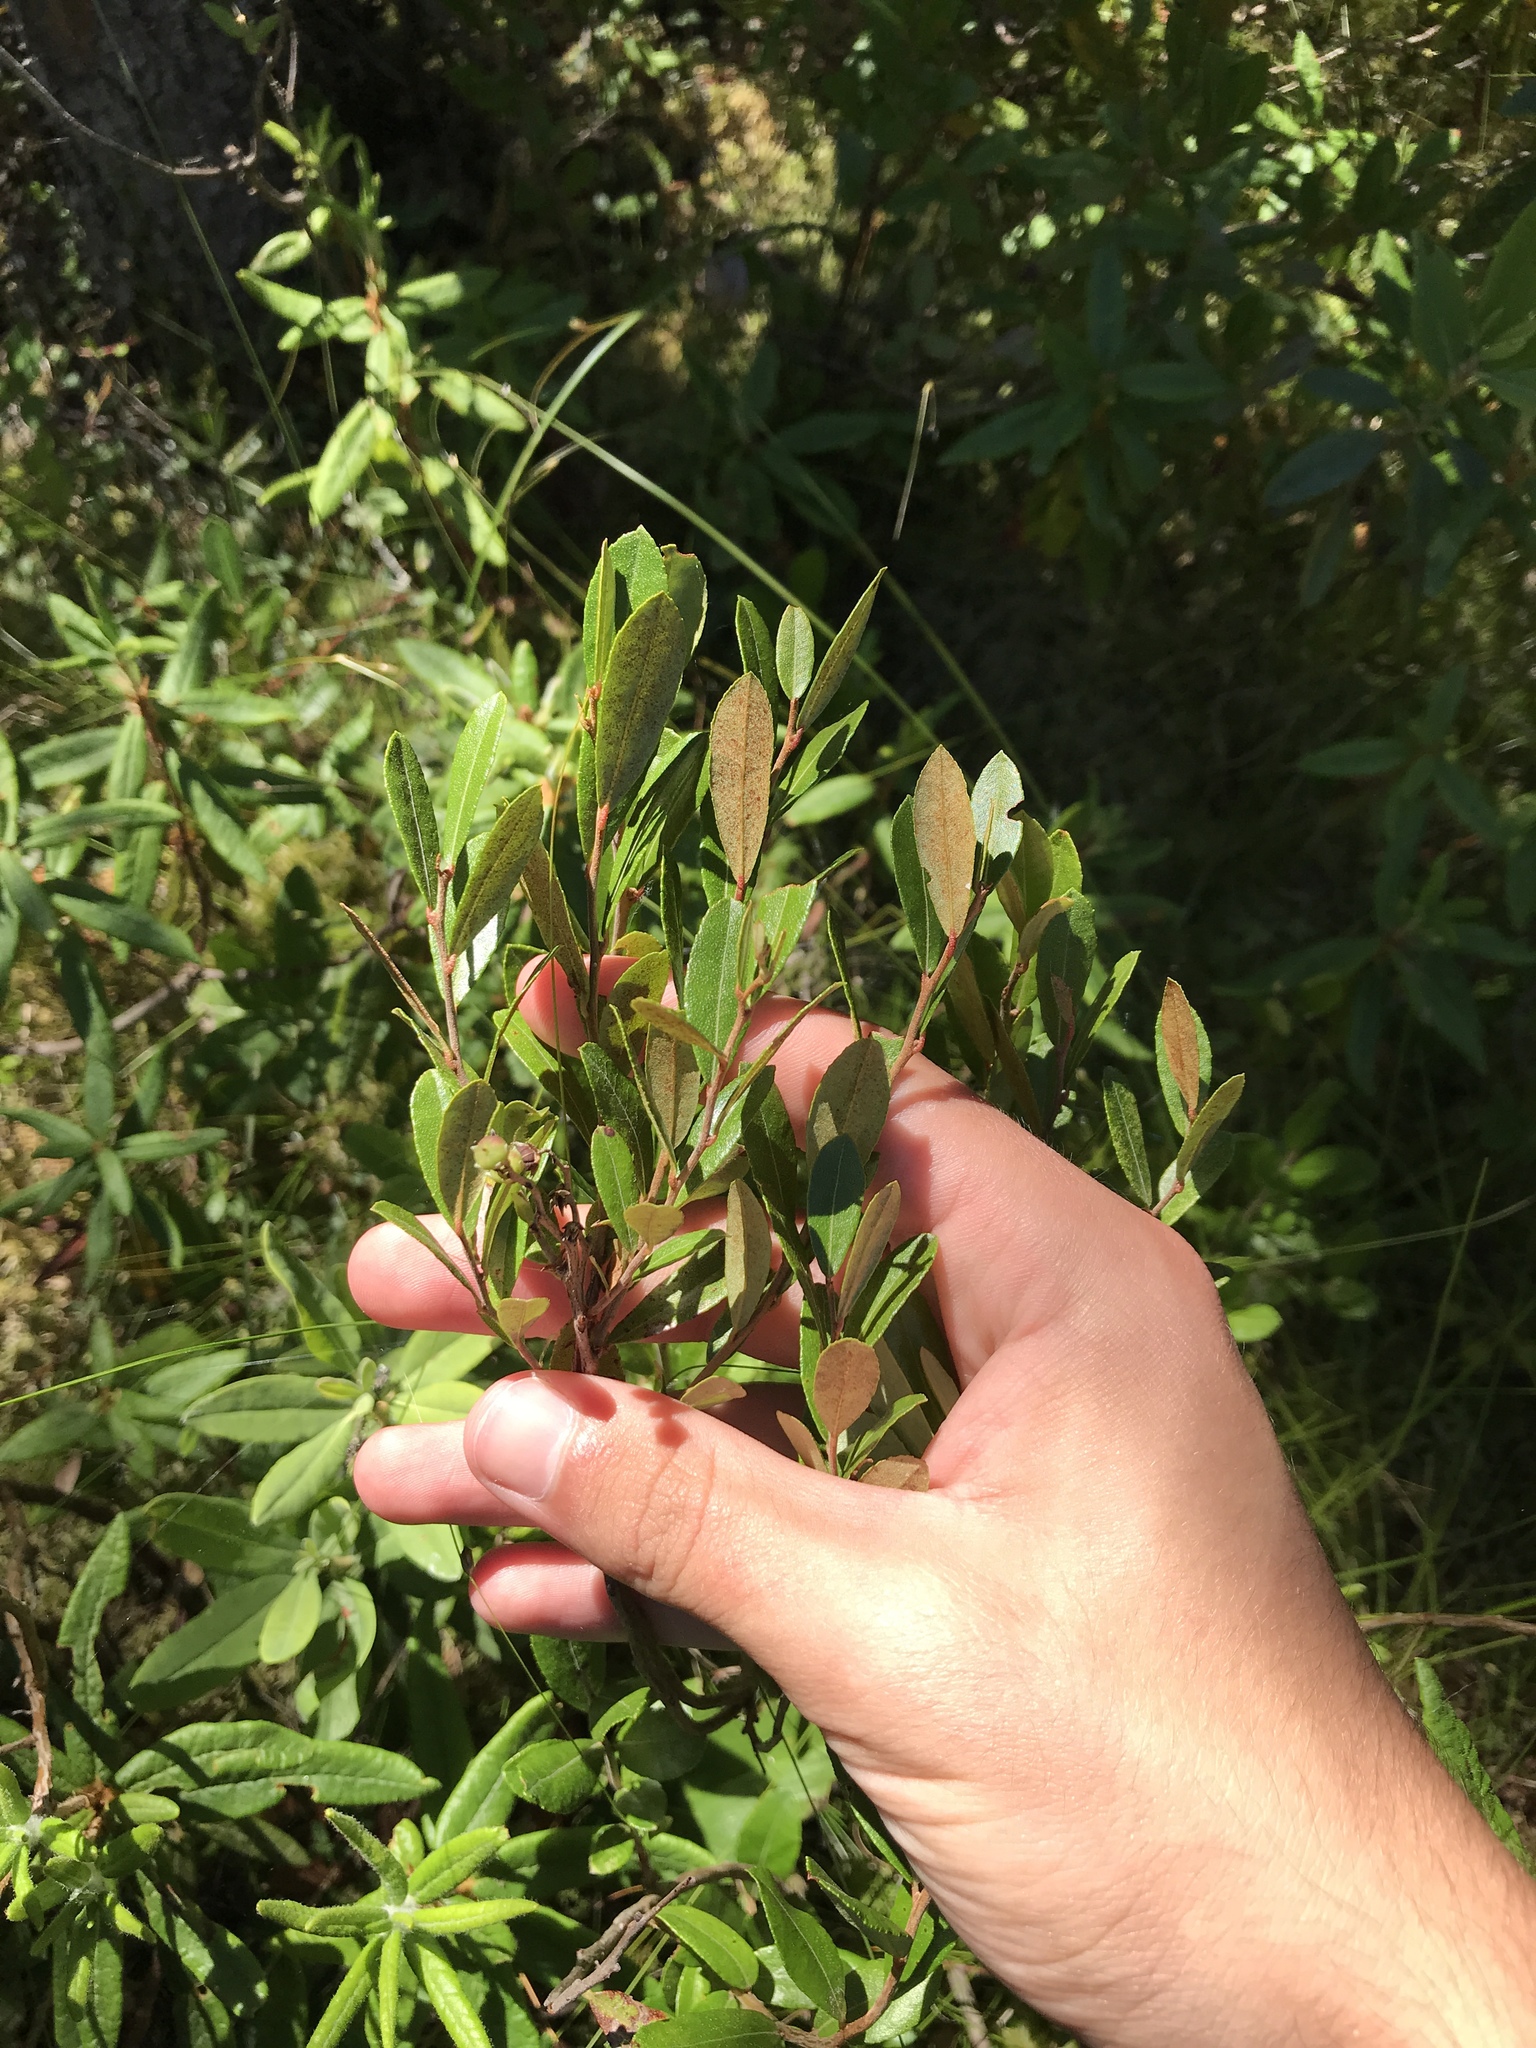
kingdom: Plantae
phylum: Tracheophyta
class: Magnoliopsida
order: Ericales
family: Ericaceae
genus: Chamaedaphne
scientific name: Chamaedaphne calyculata
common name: Leatherleaf
